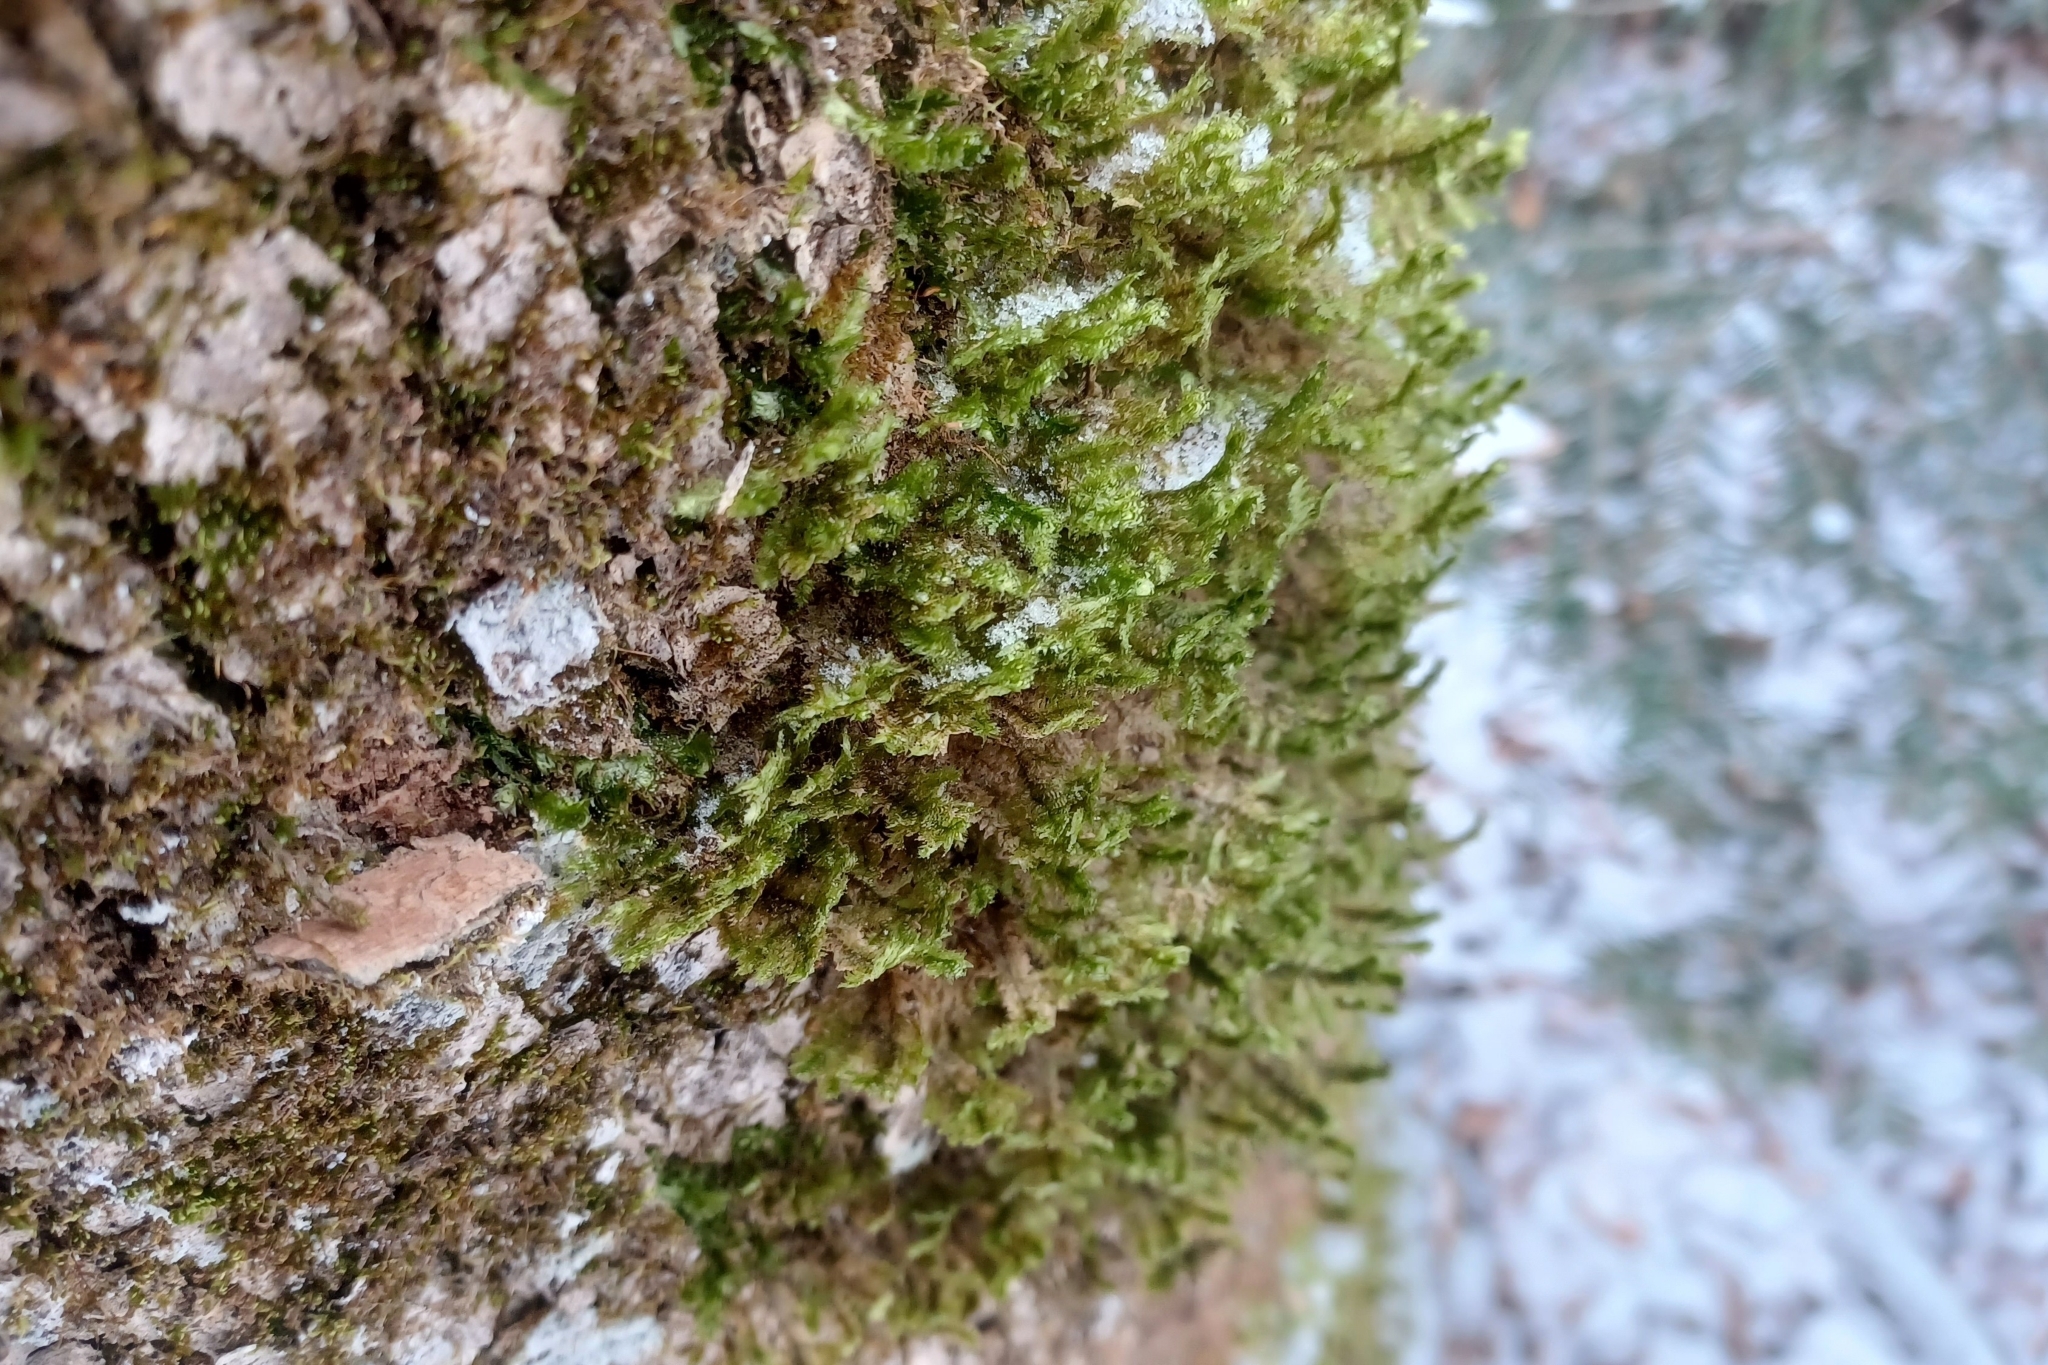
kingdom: Plantae
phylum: Bryophyta
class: Bryopsida
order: Hypnales
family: Neckeraceae
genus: Neckera
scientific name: Neckera pennata
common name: Feathery neckera
